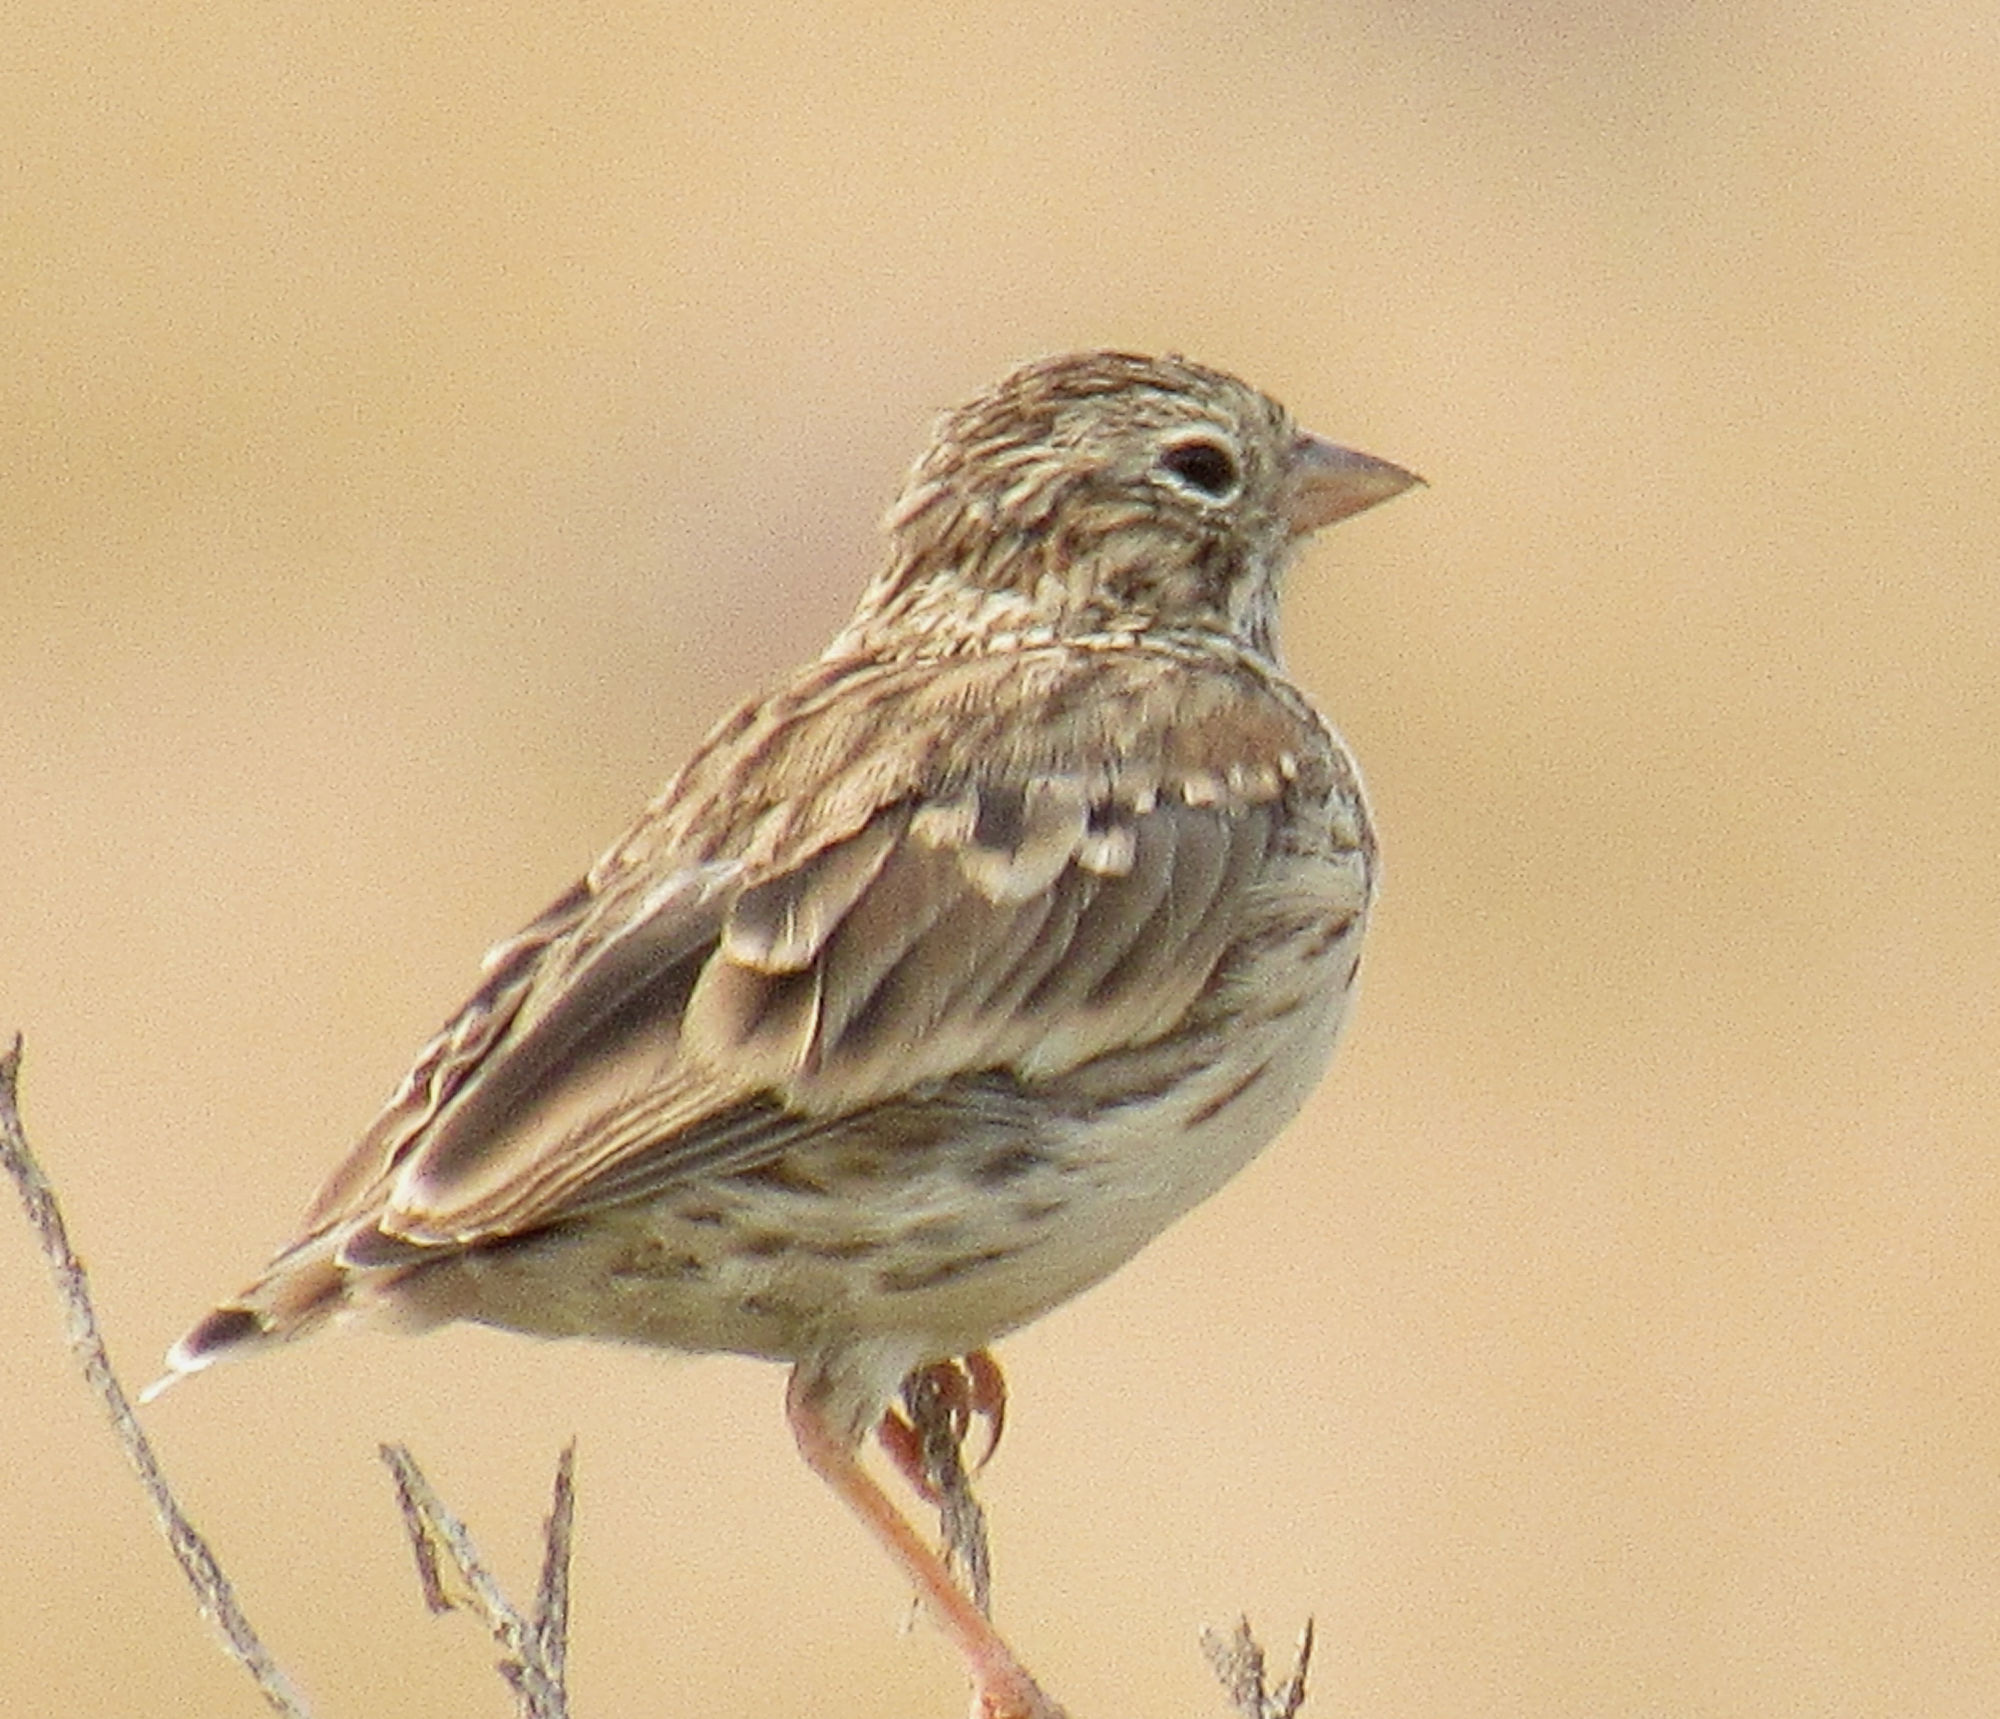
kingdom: Animalia
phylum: Chordata
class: Aves
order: Passeriformes
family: Passerellidae
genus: Pooecetes
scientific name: Pooecetes gramineus
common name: Vesper sparrow
